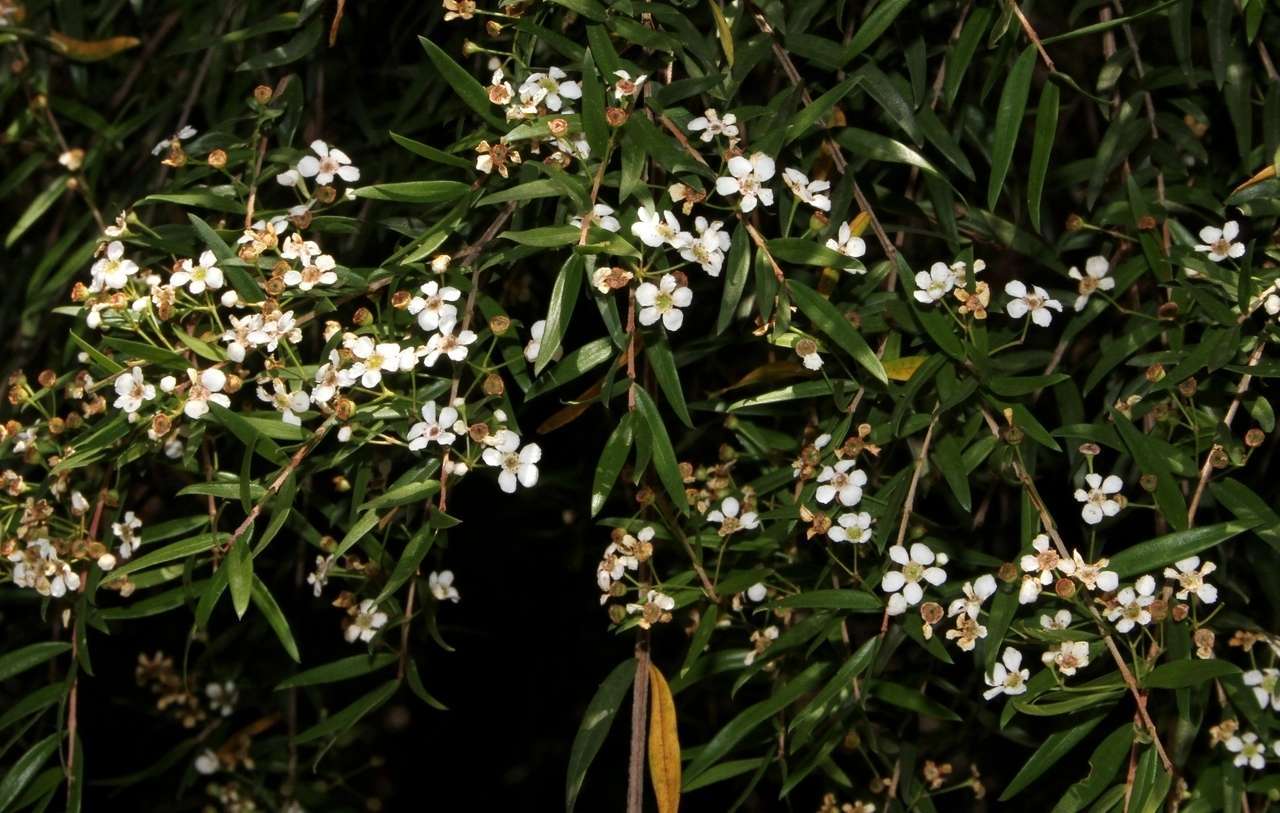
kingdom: Plantae
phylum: Tracheophyta
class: Magnoliopsida
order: Myrtales
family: Myrtaceae
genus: Sannantha
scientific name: Sannantha pluriflora
